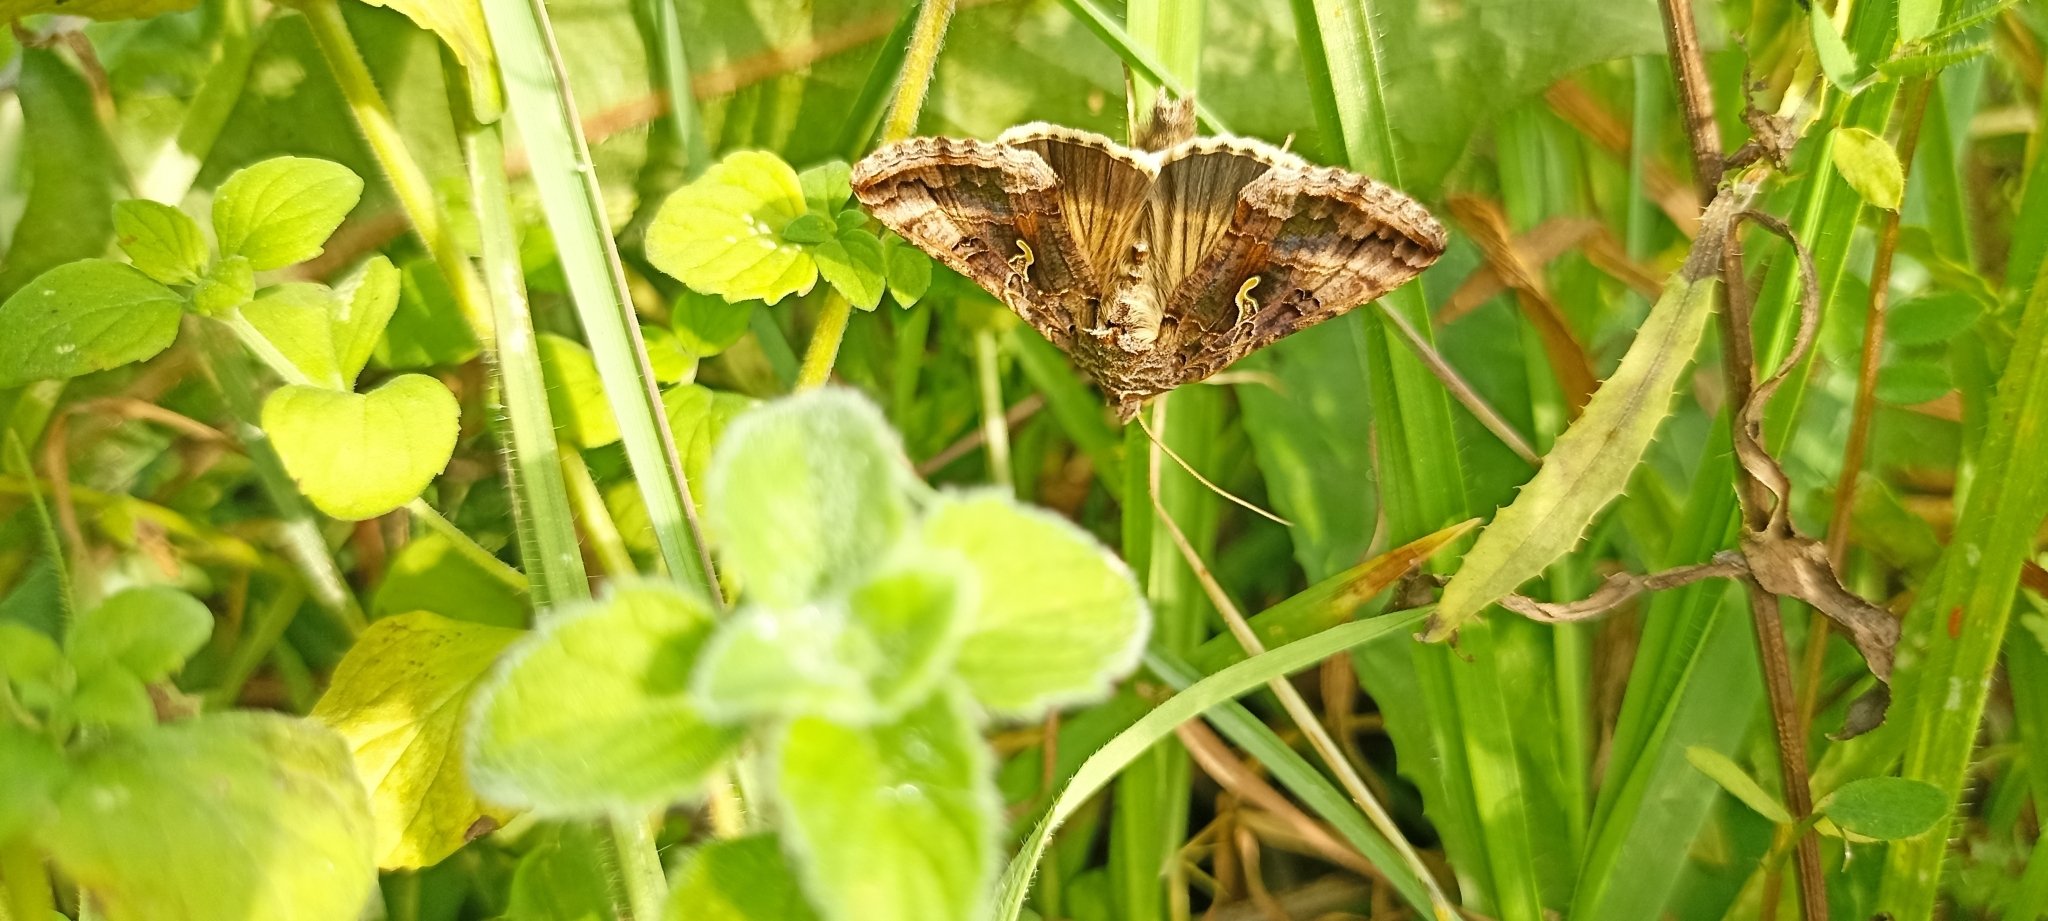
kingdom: Animalia
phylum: Arthropoda
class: Insecta
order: Lepidoptera
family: Noctuidae
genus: Autographa
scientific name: Autographa gamma
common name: Silver y
